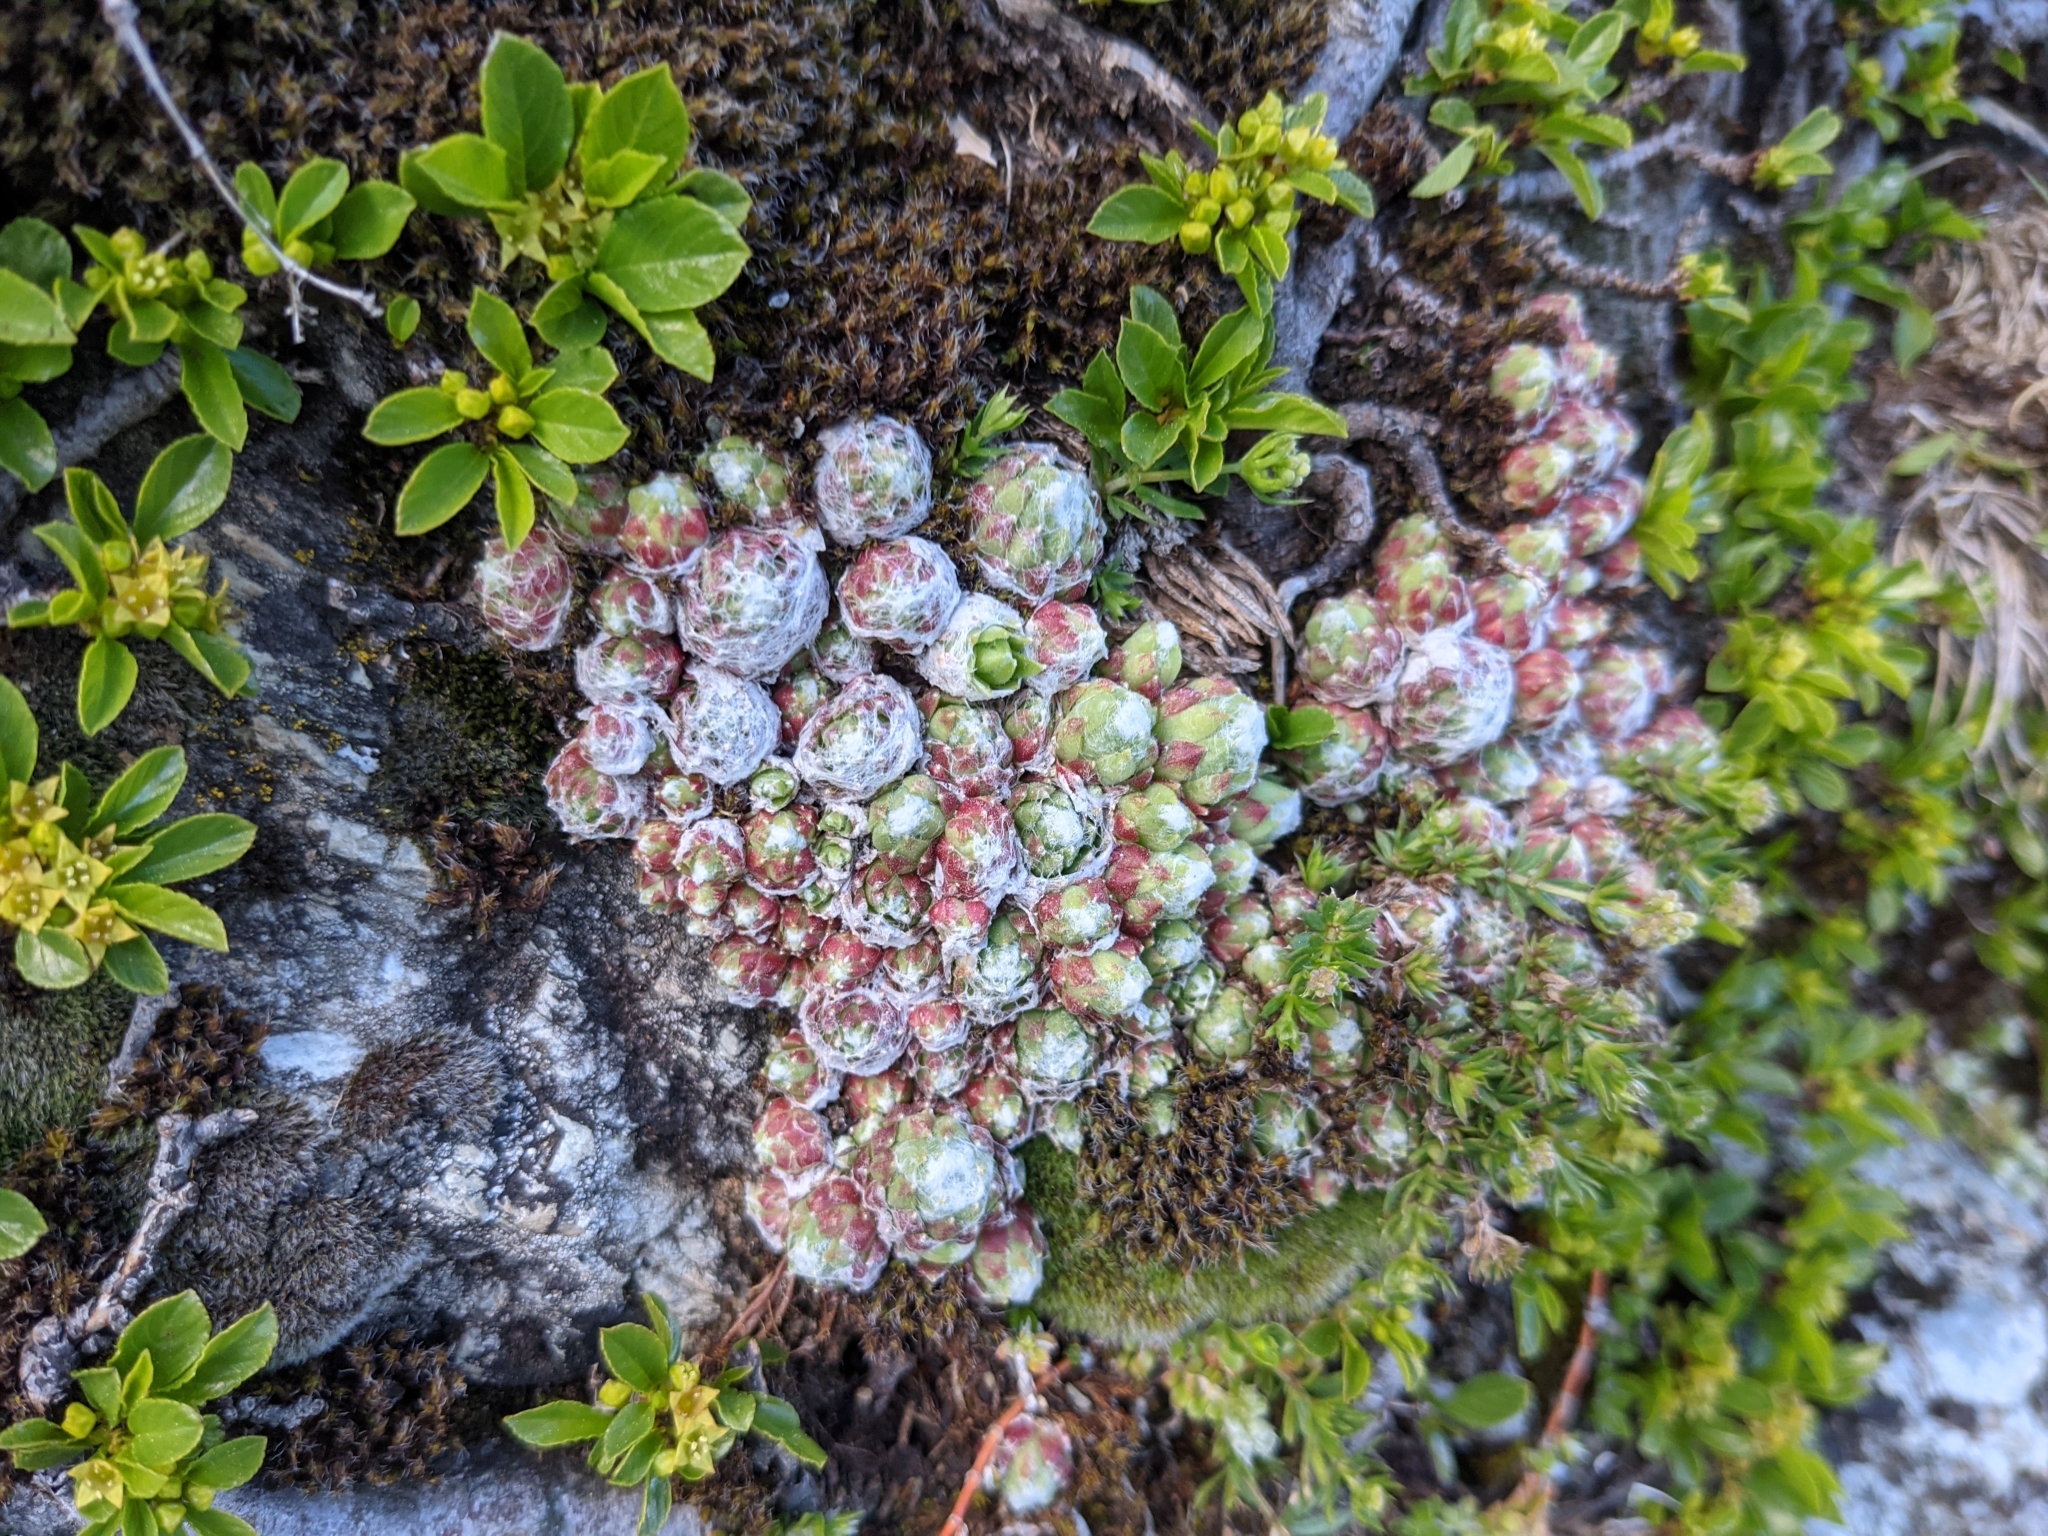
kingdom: Plantae
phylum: Tracheophyta
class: Magnoliopsida
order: Saxifragales
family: Crassulaceae
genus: Sempervivum
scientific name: Sempervivum arachnoideum
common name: Cobweb house-leek
